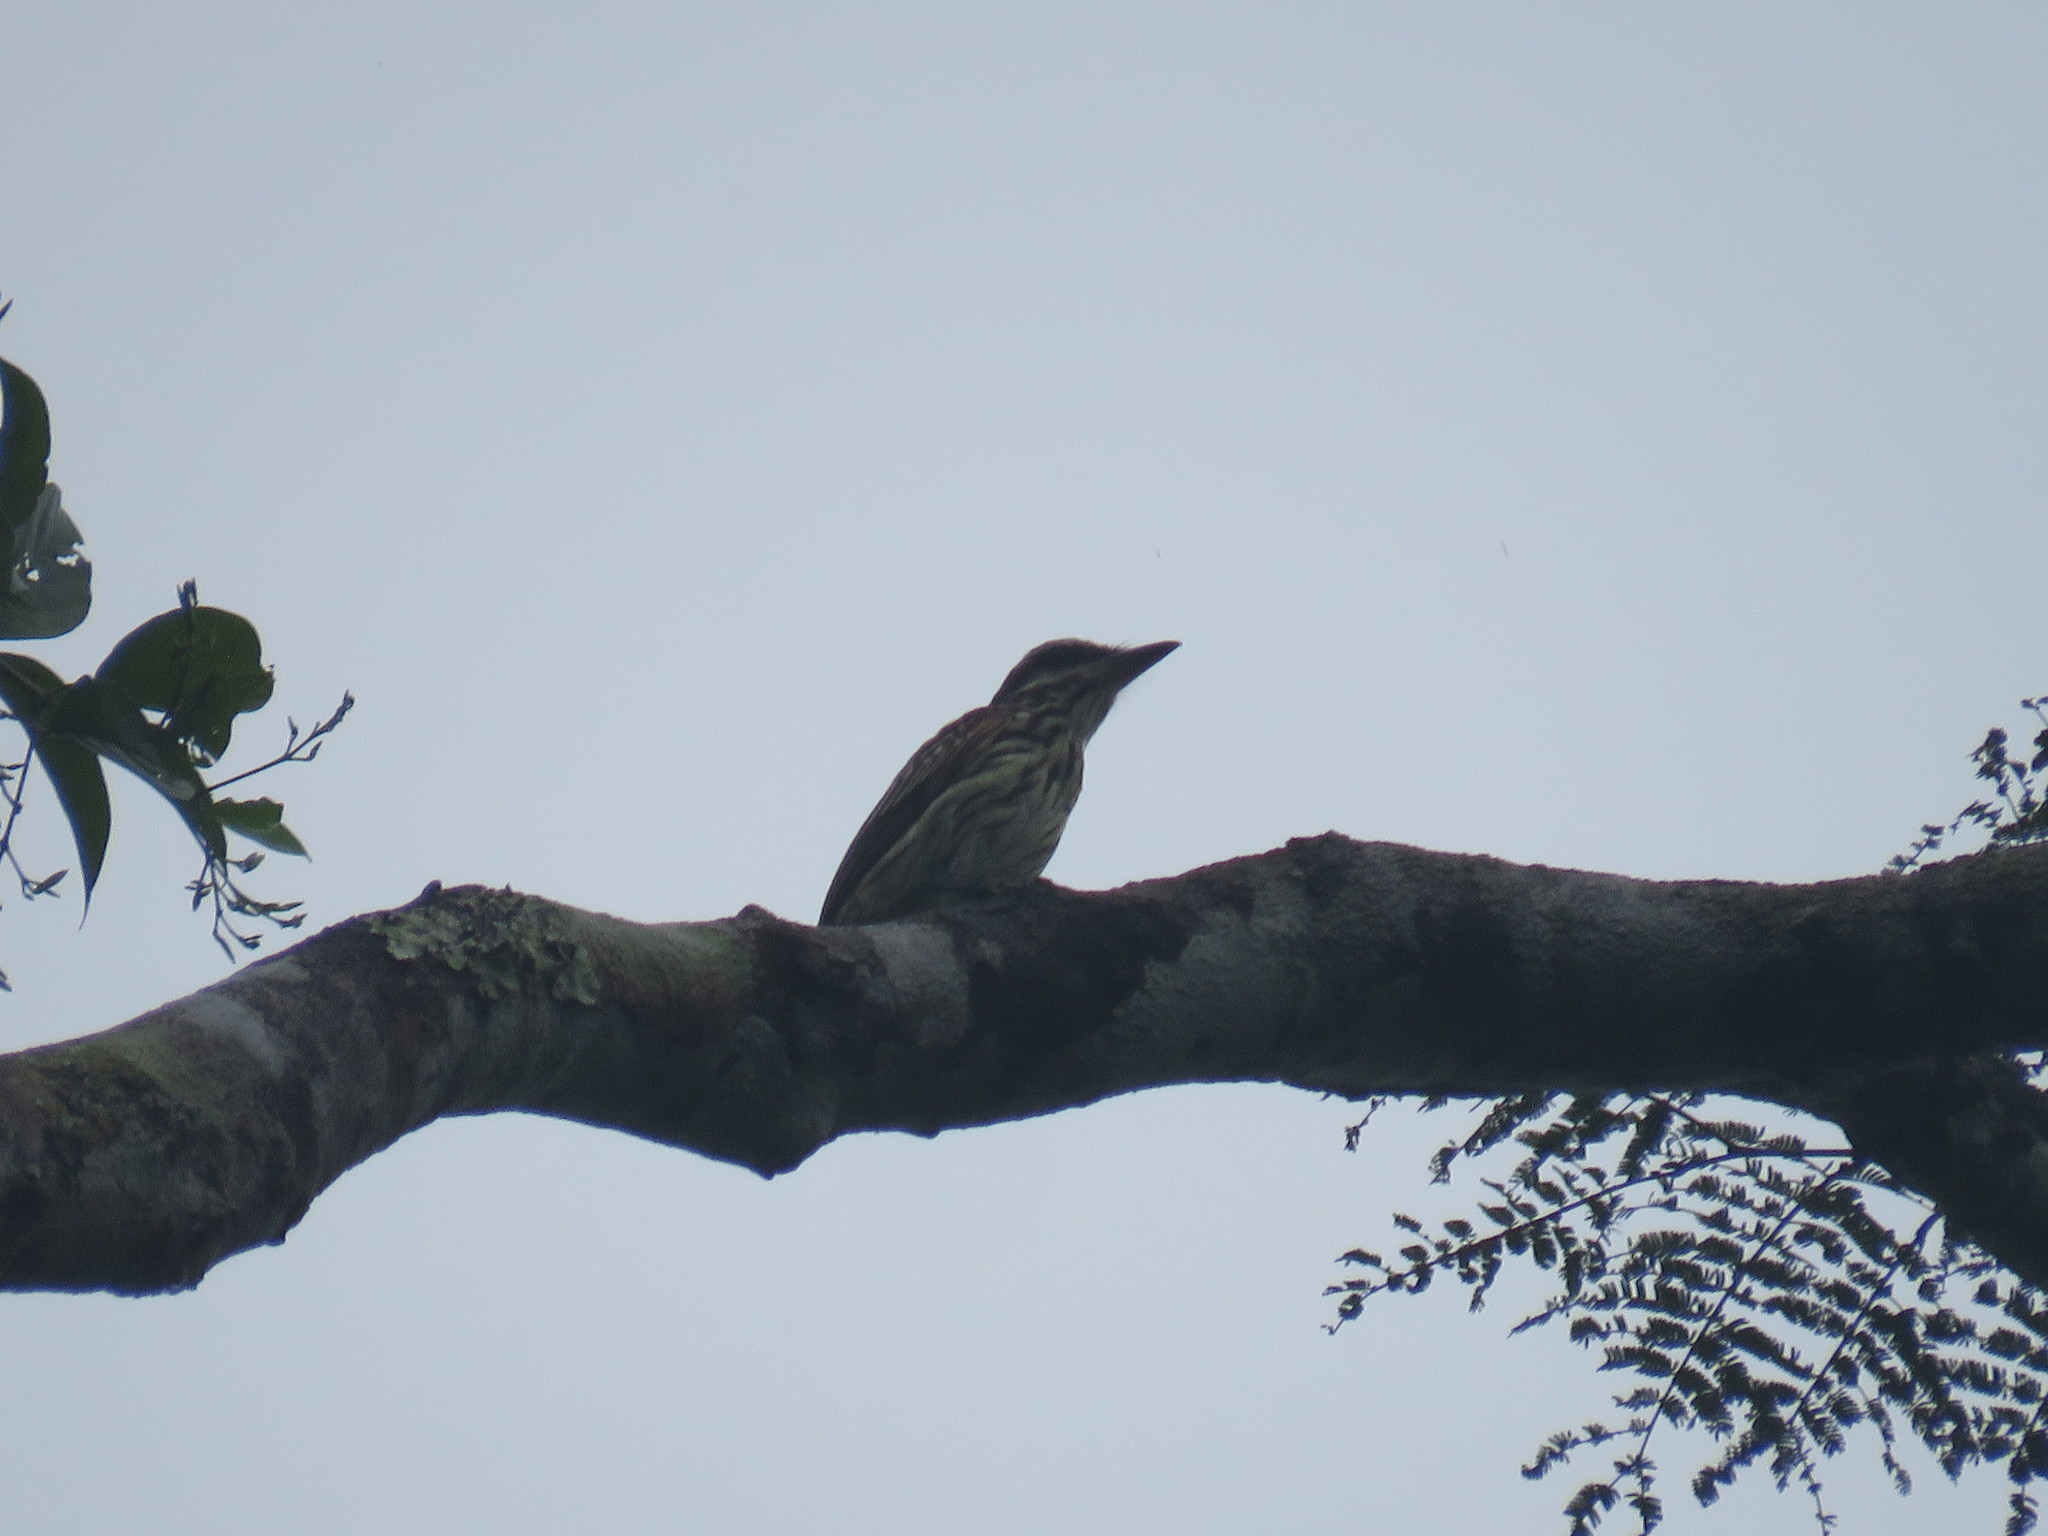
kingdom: Animalia
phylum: Chordata
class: Aves
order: Passeriformes
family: Tyrannidae
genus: Myiodynastes
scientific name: Myiodynastes maculatus
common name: Streaked flycatcher
